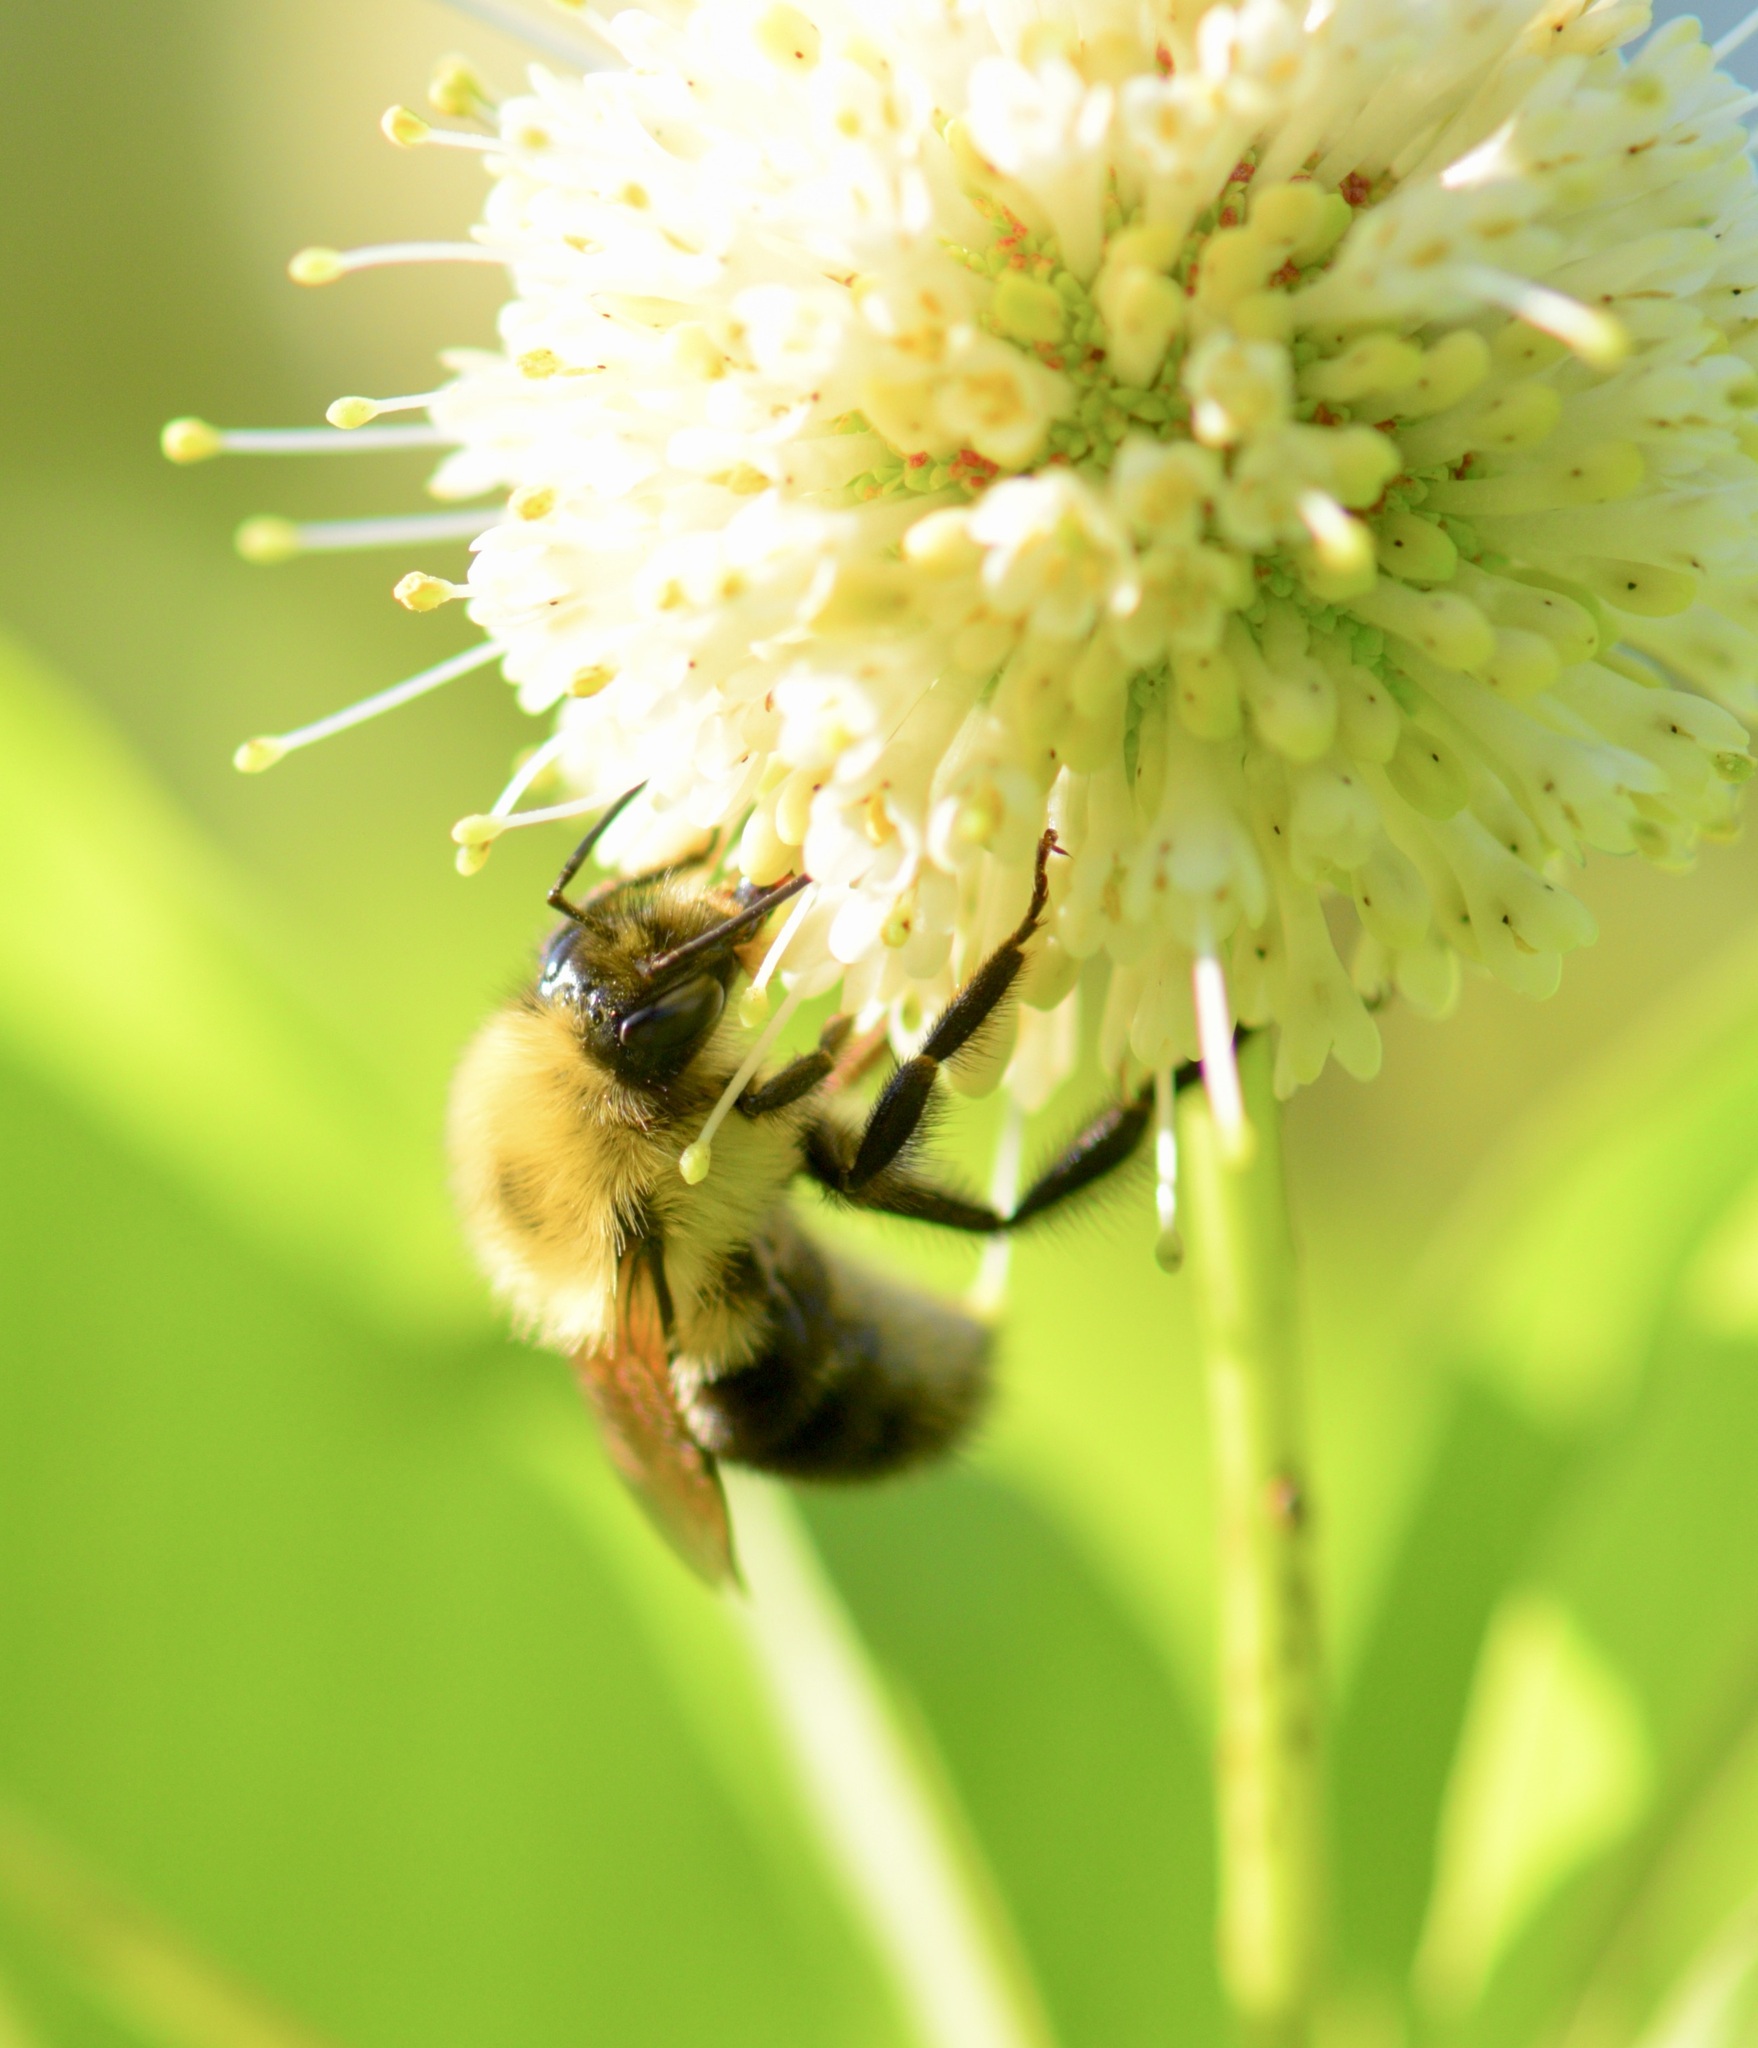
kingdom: Animalia
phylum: Arthropoda
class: Insecta
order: Hymenoptera
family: Apidae
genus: Bombus
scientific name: Bombus bimaculatus
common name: Two-spotted bumble bee
